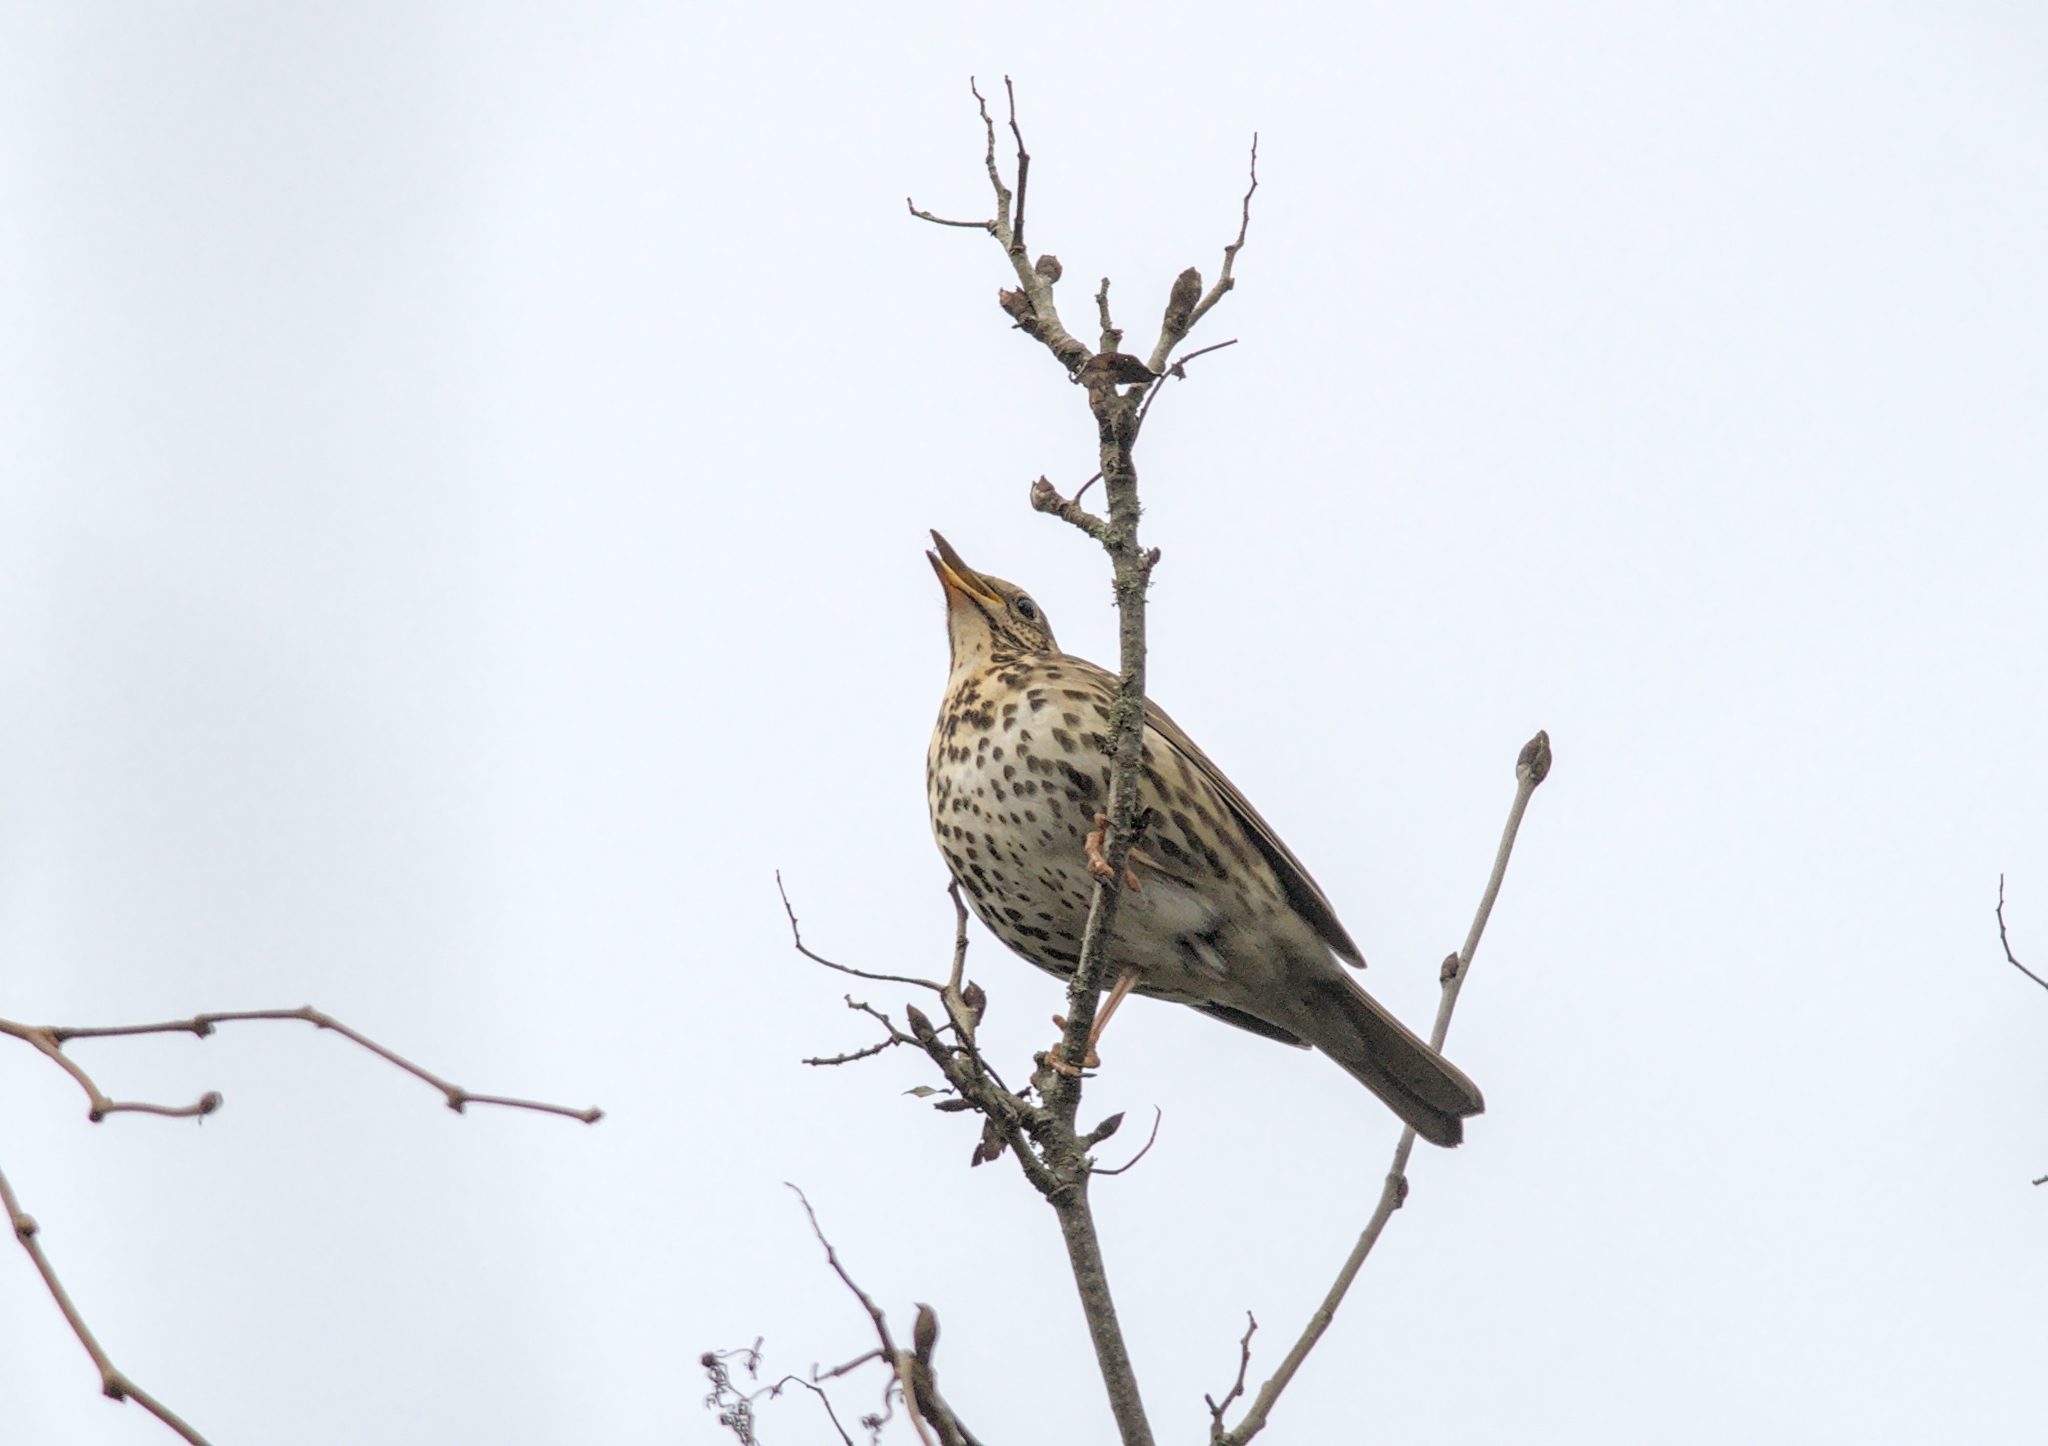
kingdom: Animalia
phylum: Chordata
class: Aves
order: Passeriformes
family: Turdidae
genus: Turdus
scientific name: Turdus philomelos
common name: Song thrush
